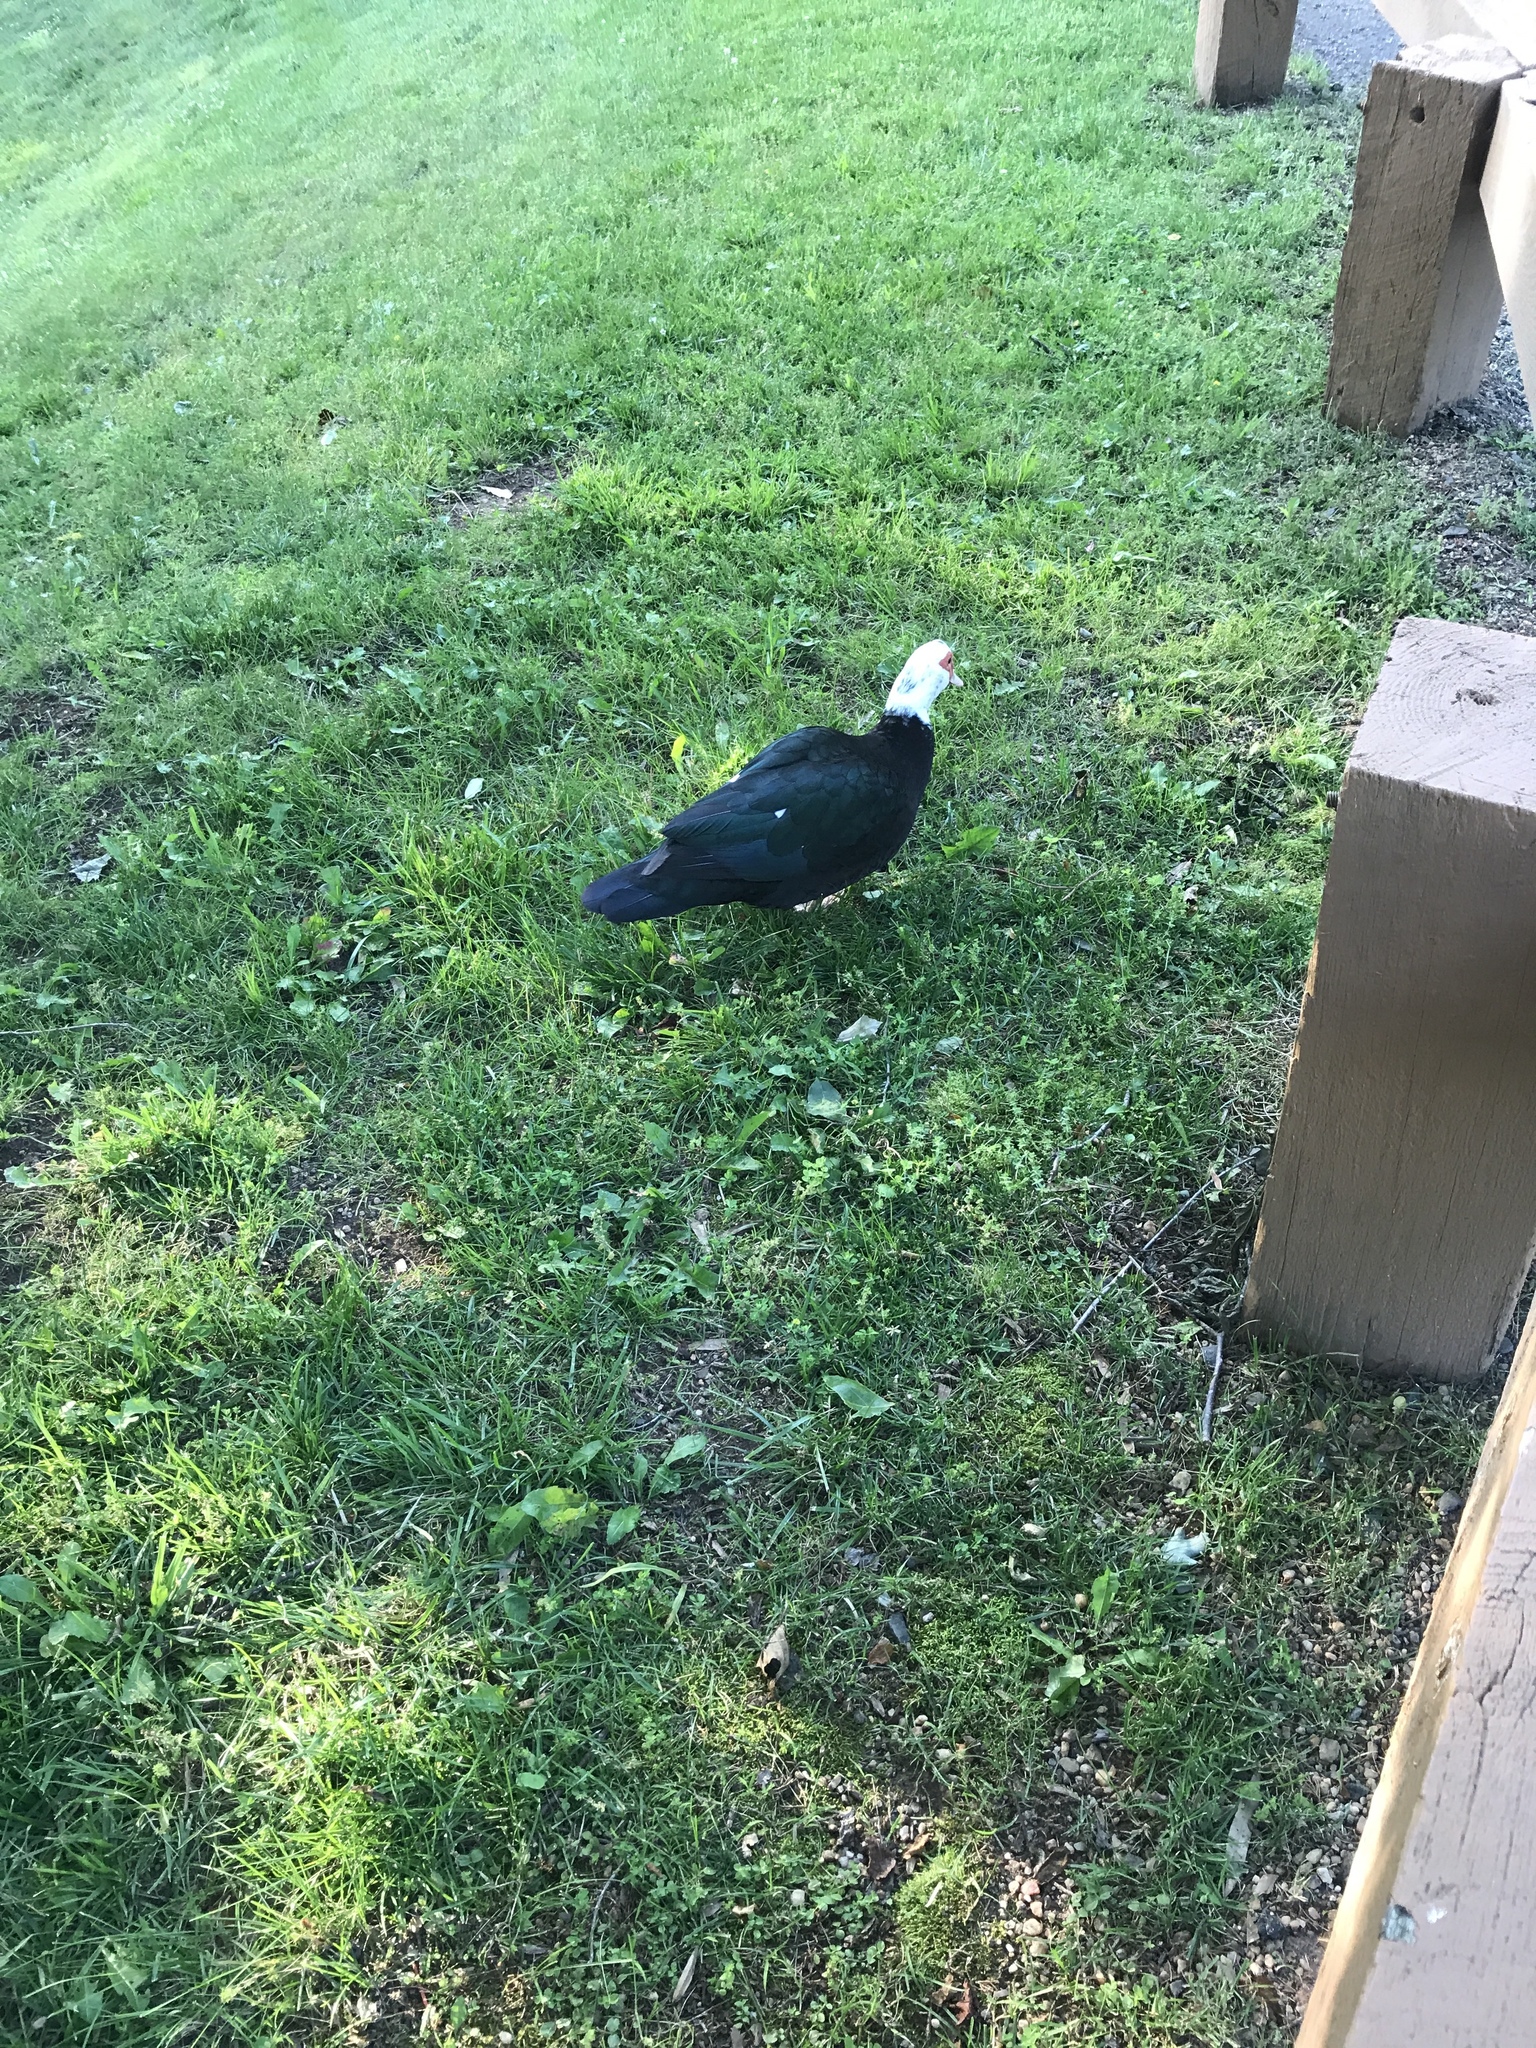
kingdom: Animalia
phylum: Chordata
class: Aves
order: Anseriformes
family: Anatidae
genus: Cairina
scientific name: Cairina moschata
